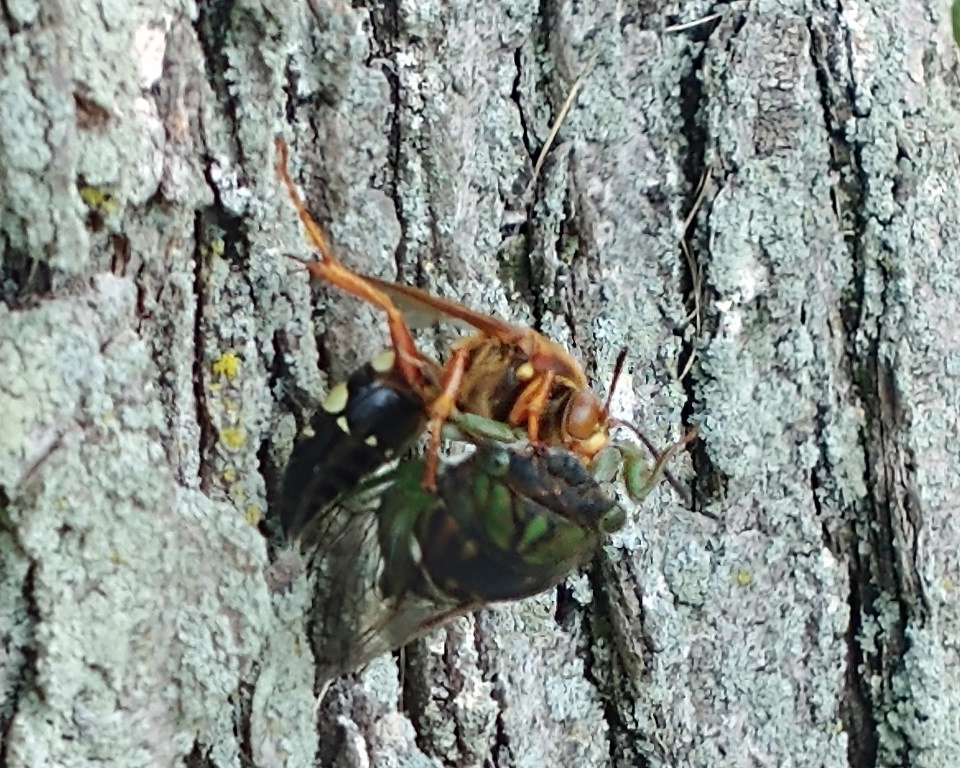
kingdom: Animalia
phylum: Arthropoda
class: Insecta
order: Hymenoptera
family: Crabronidae
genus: Sphecius
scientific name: Sphecius speciosus
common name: Cicada killer
